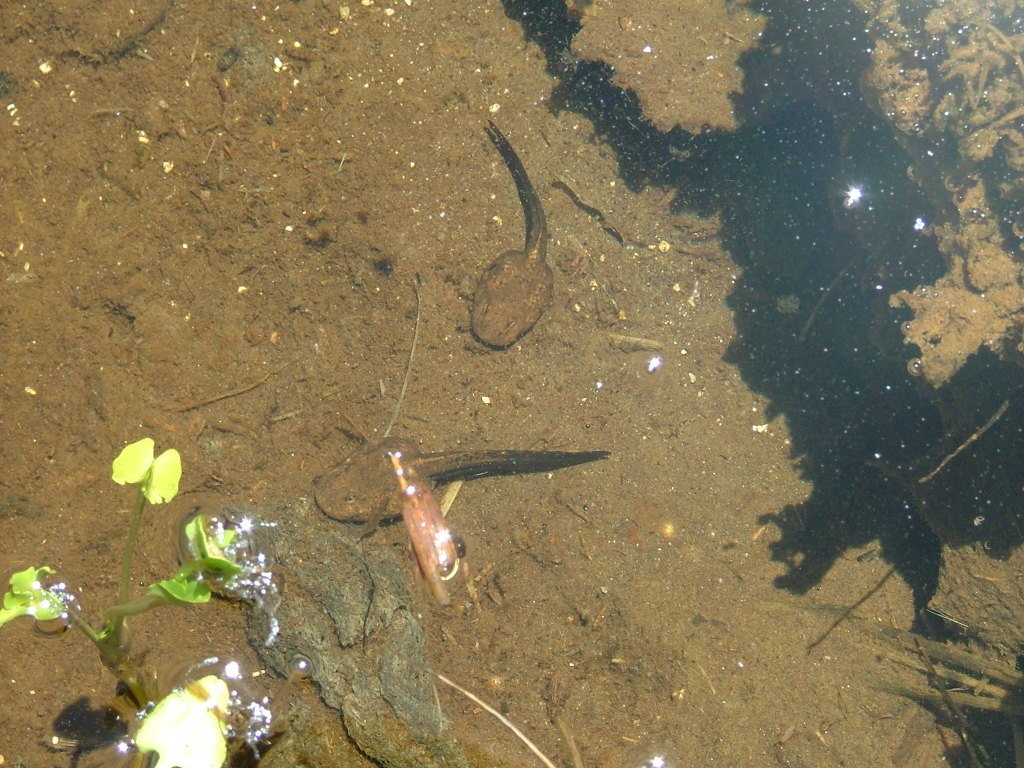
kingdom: Animalia
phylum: Chordata
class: Amphibia
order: Anura
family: Alsodidae
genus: Alsodes
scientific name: Alsodes pehuenche
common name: Pehuenche spiny-chest frog
